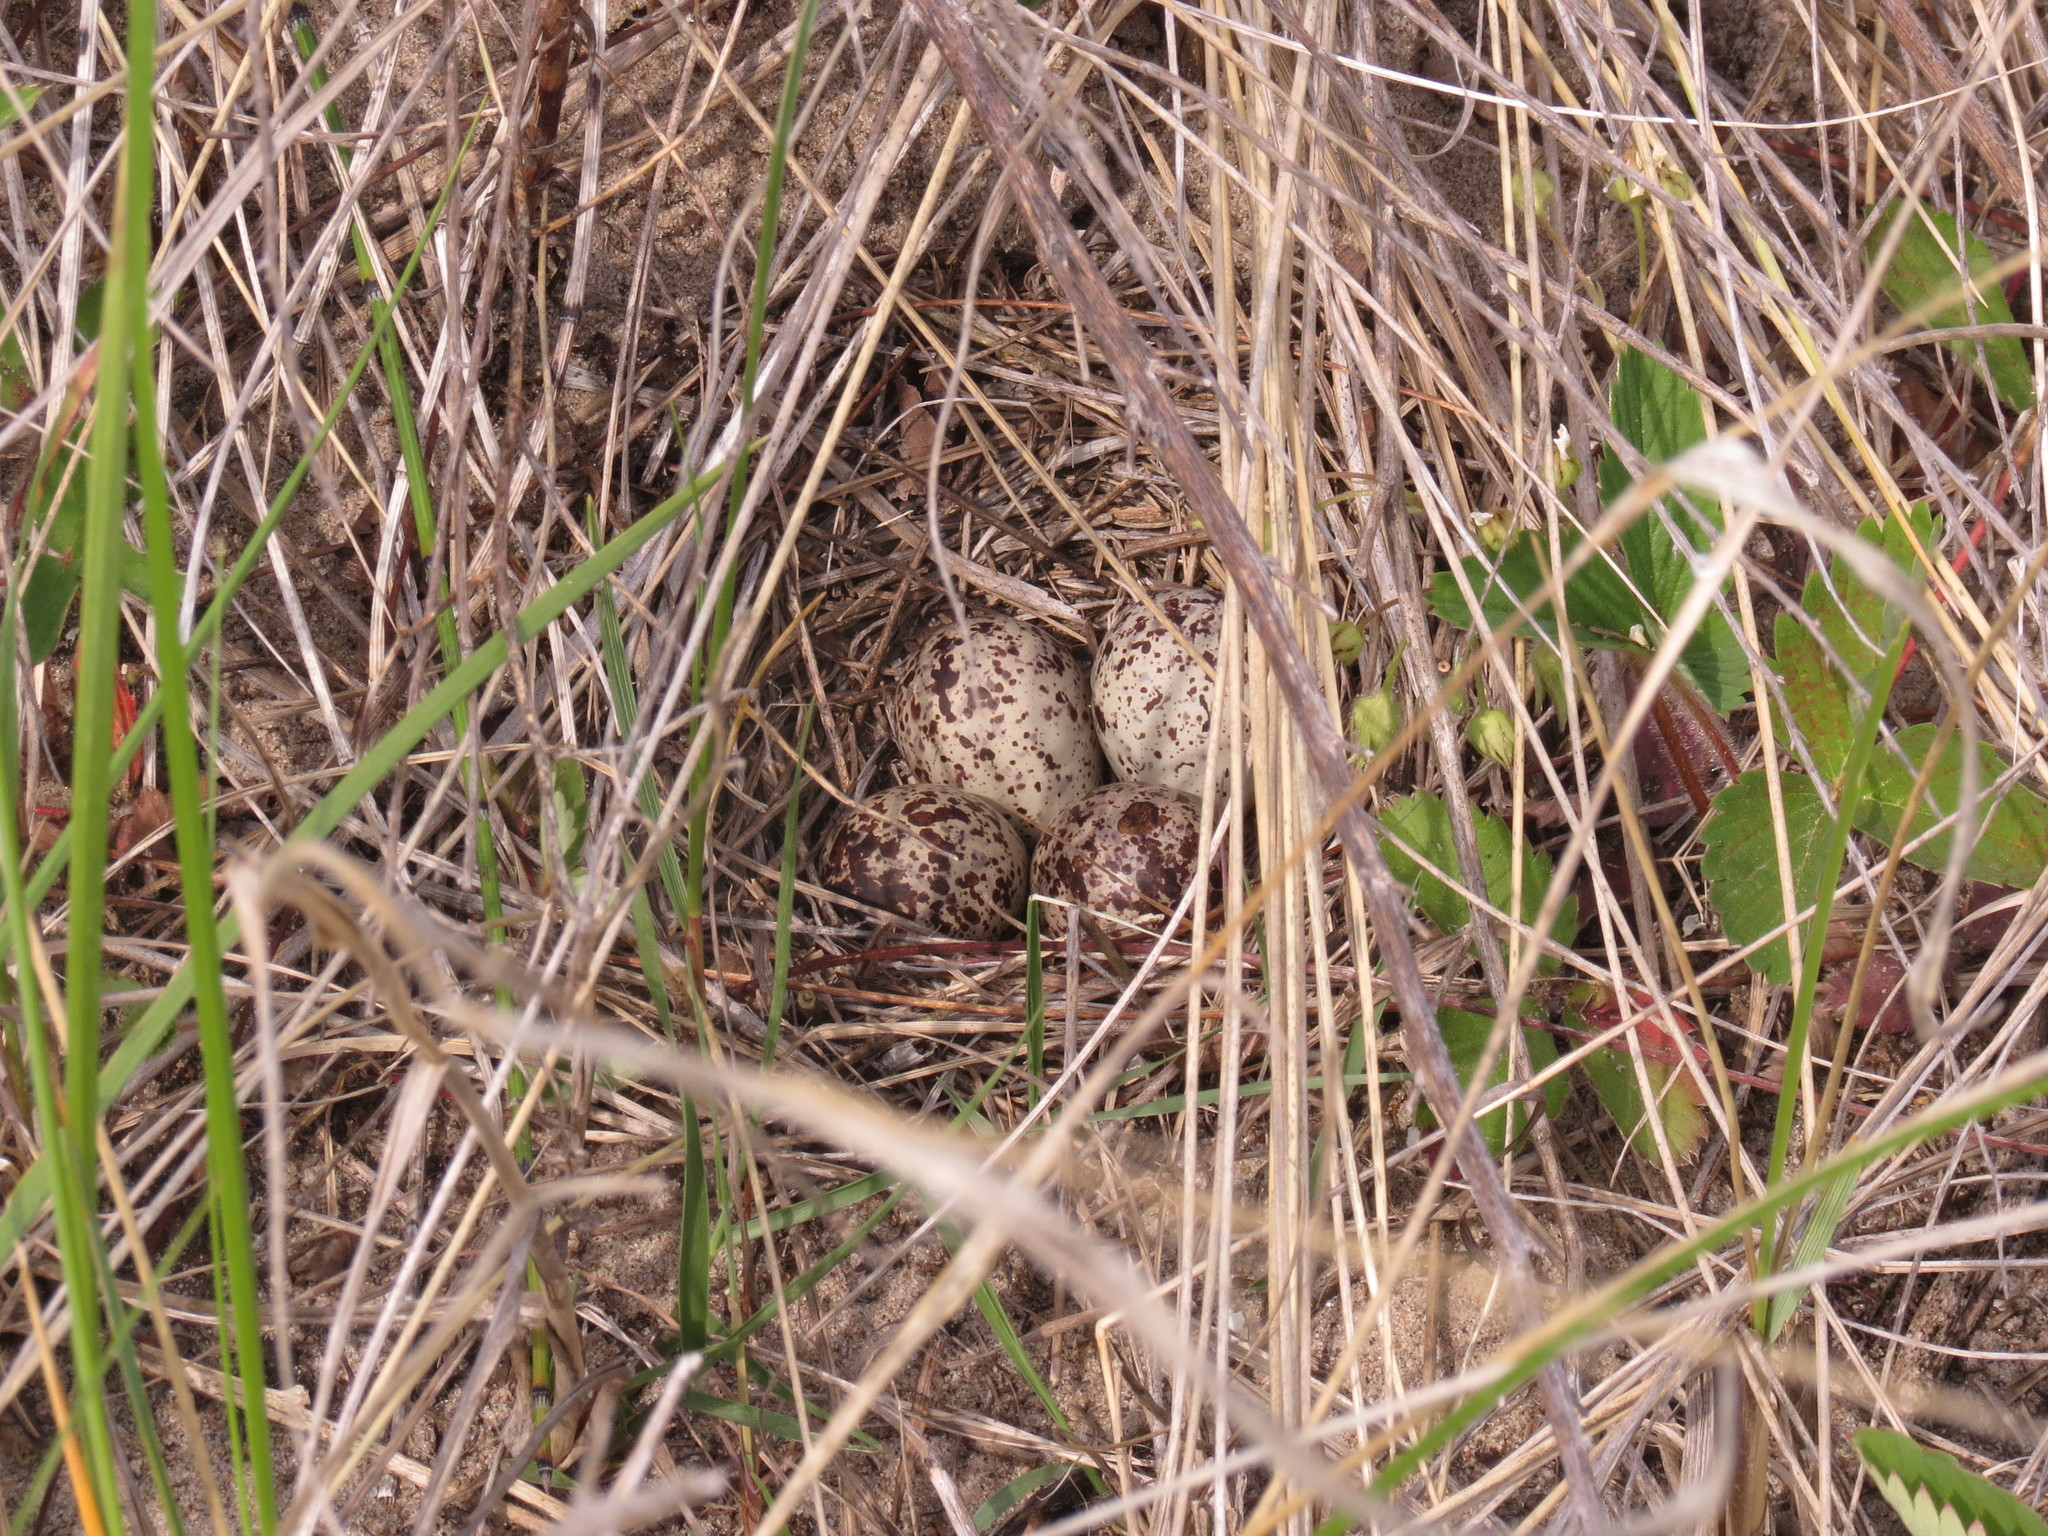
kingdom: Animalia
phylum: Chordata
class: Aves
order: Charadriiformes
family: Scolopacidae
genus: Actitis
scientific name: Actitis macularius
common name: Spotted sandpiper
